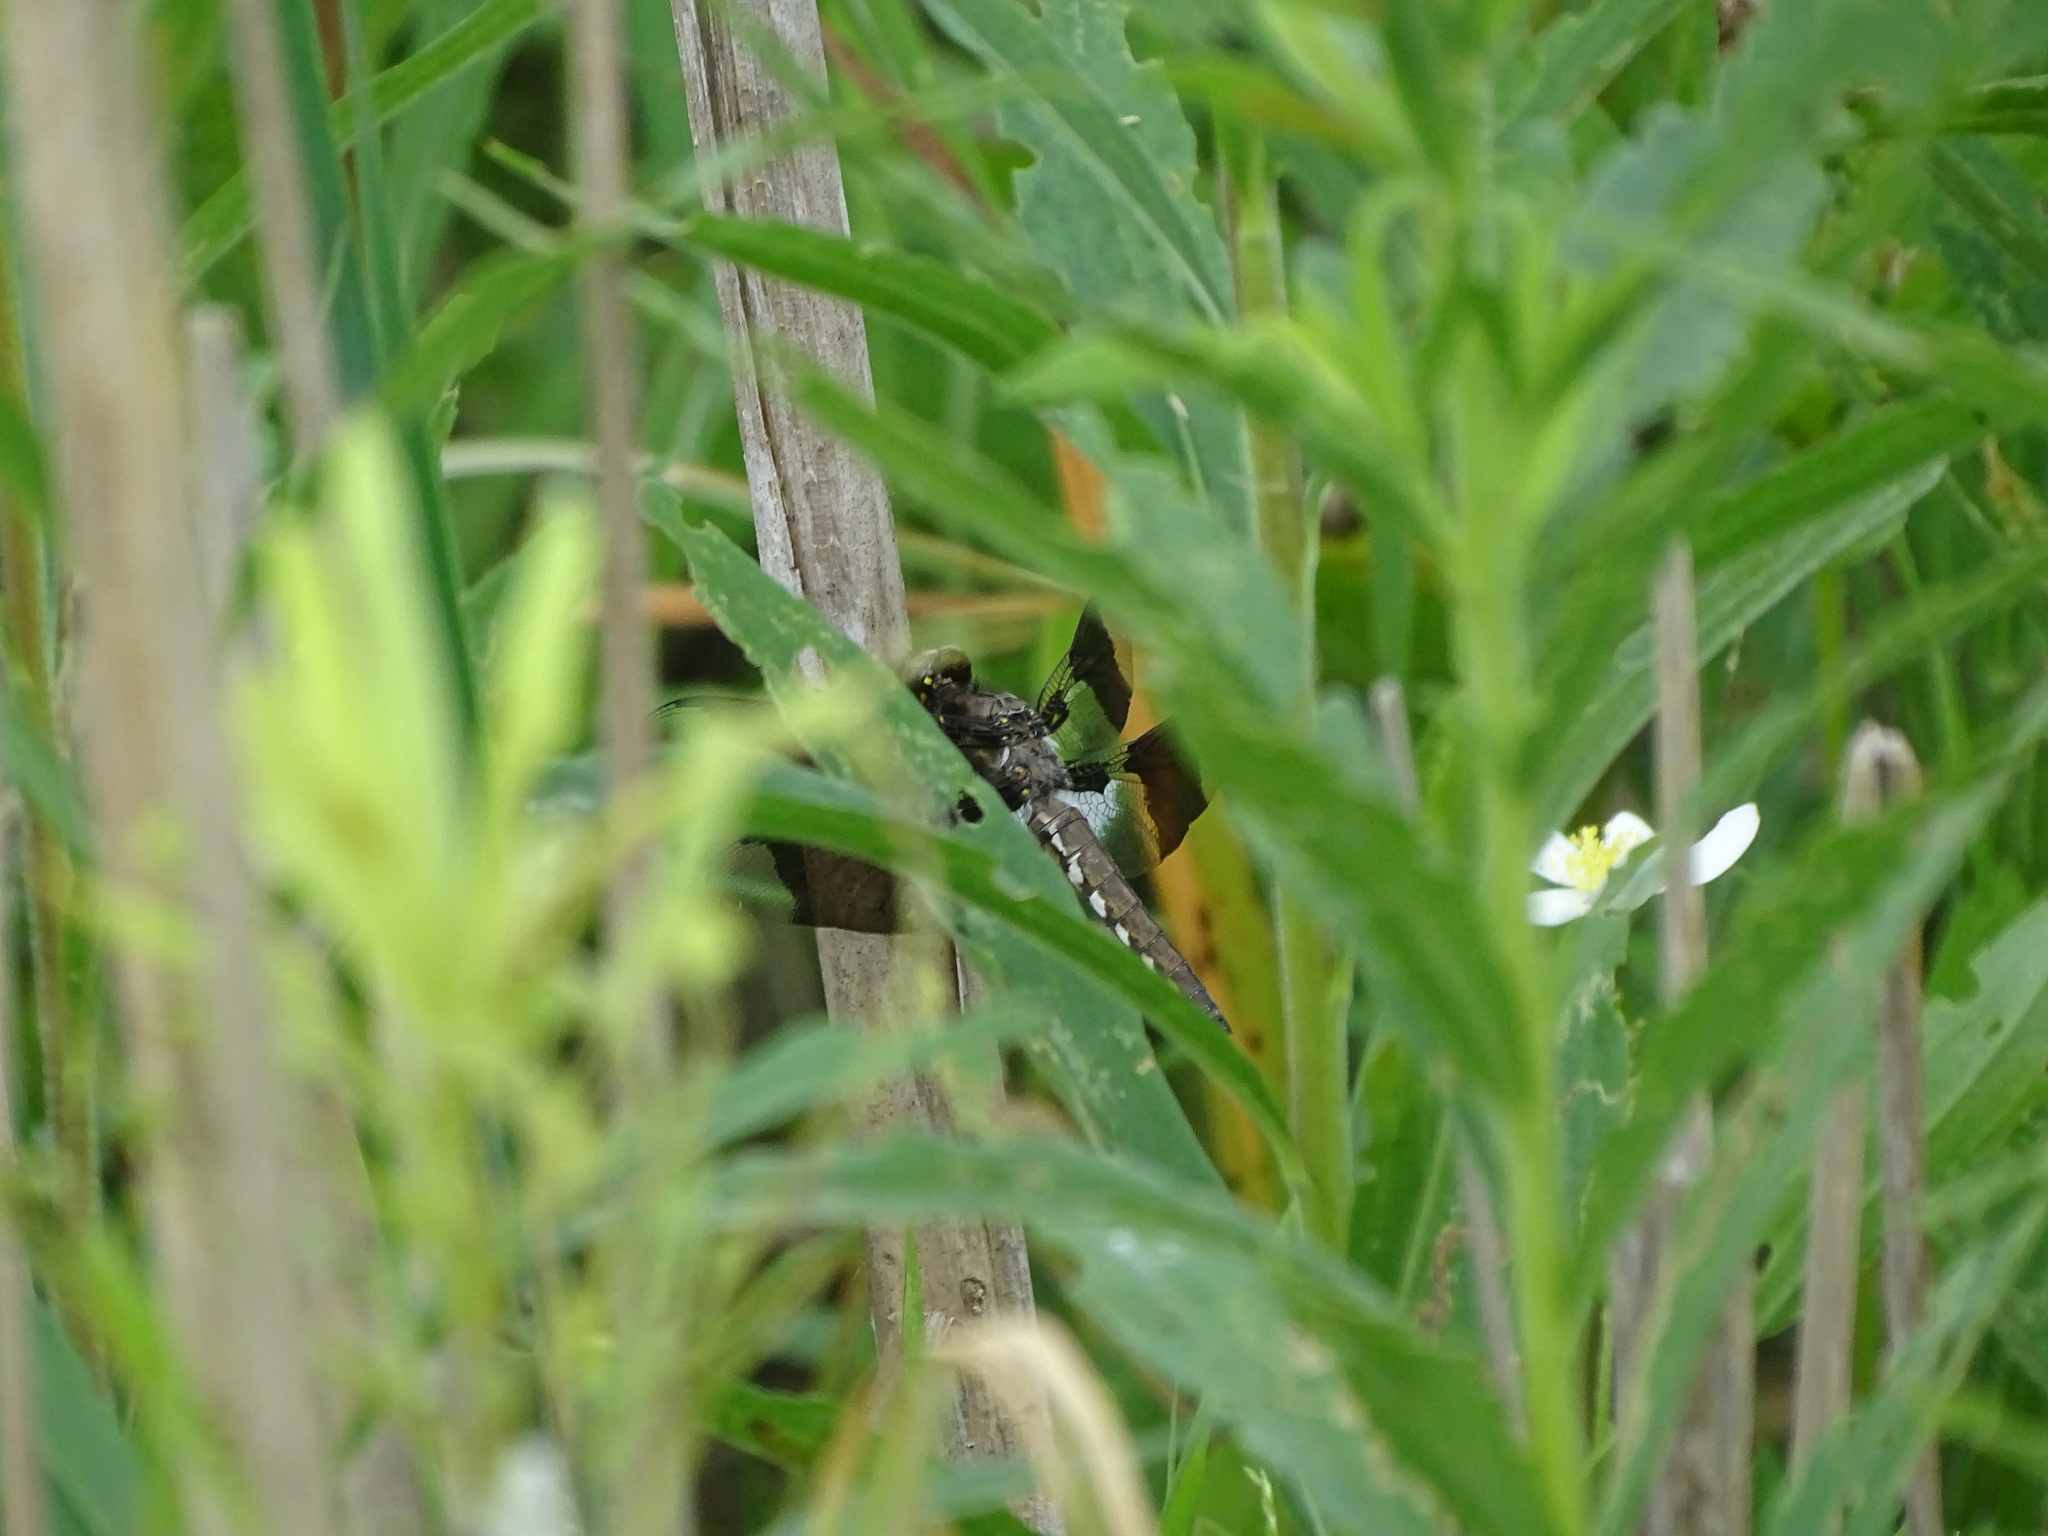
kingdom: Animalia
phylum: Arthropoda
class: Insecta
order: Odonata
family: Libellulidae
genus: Plathemis
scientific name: Plathemis lydia
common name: Common whitetail
